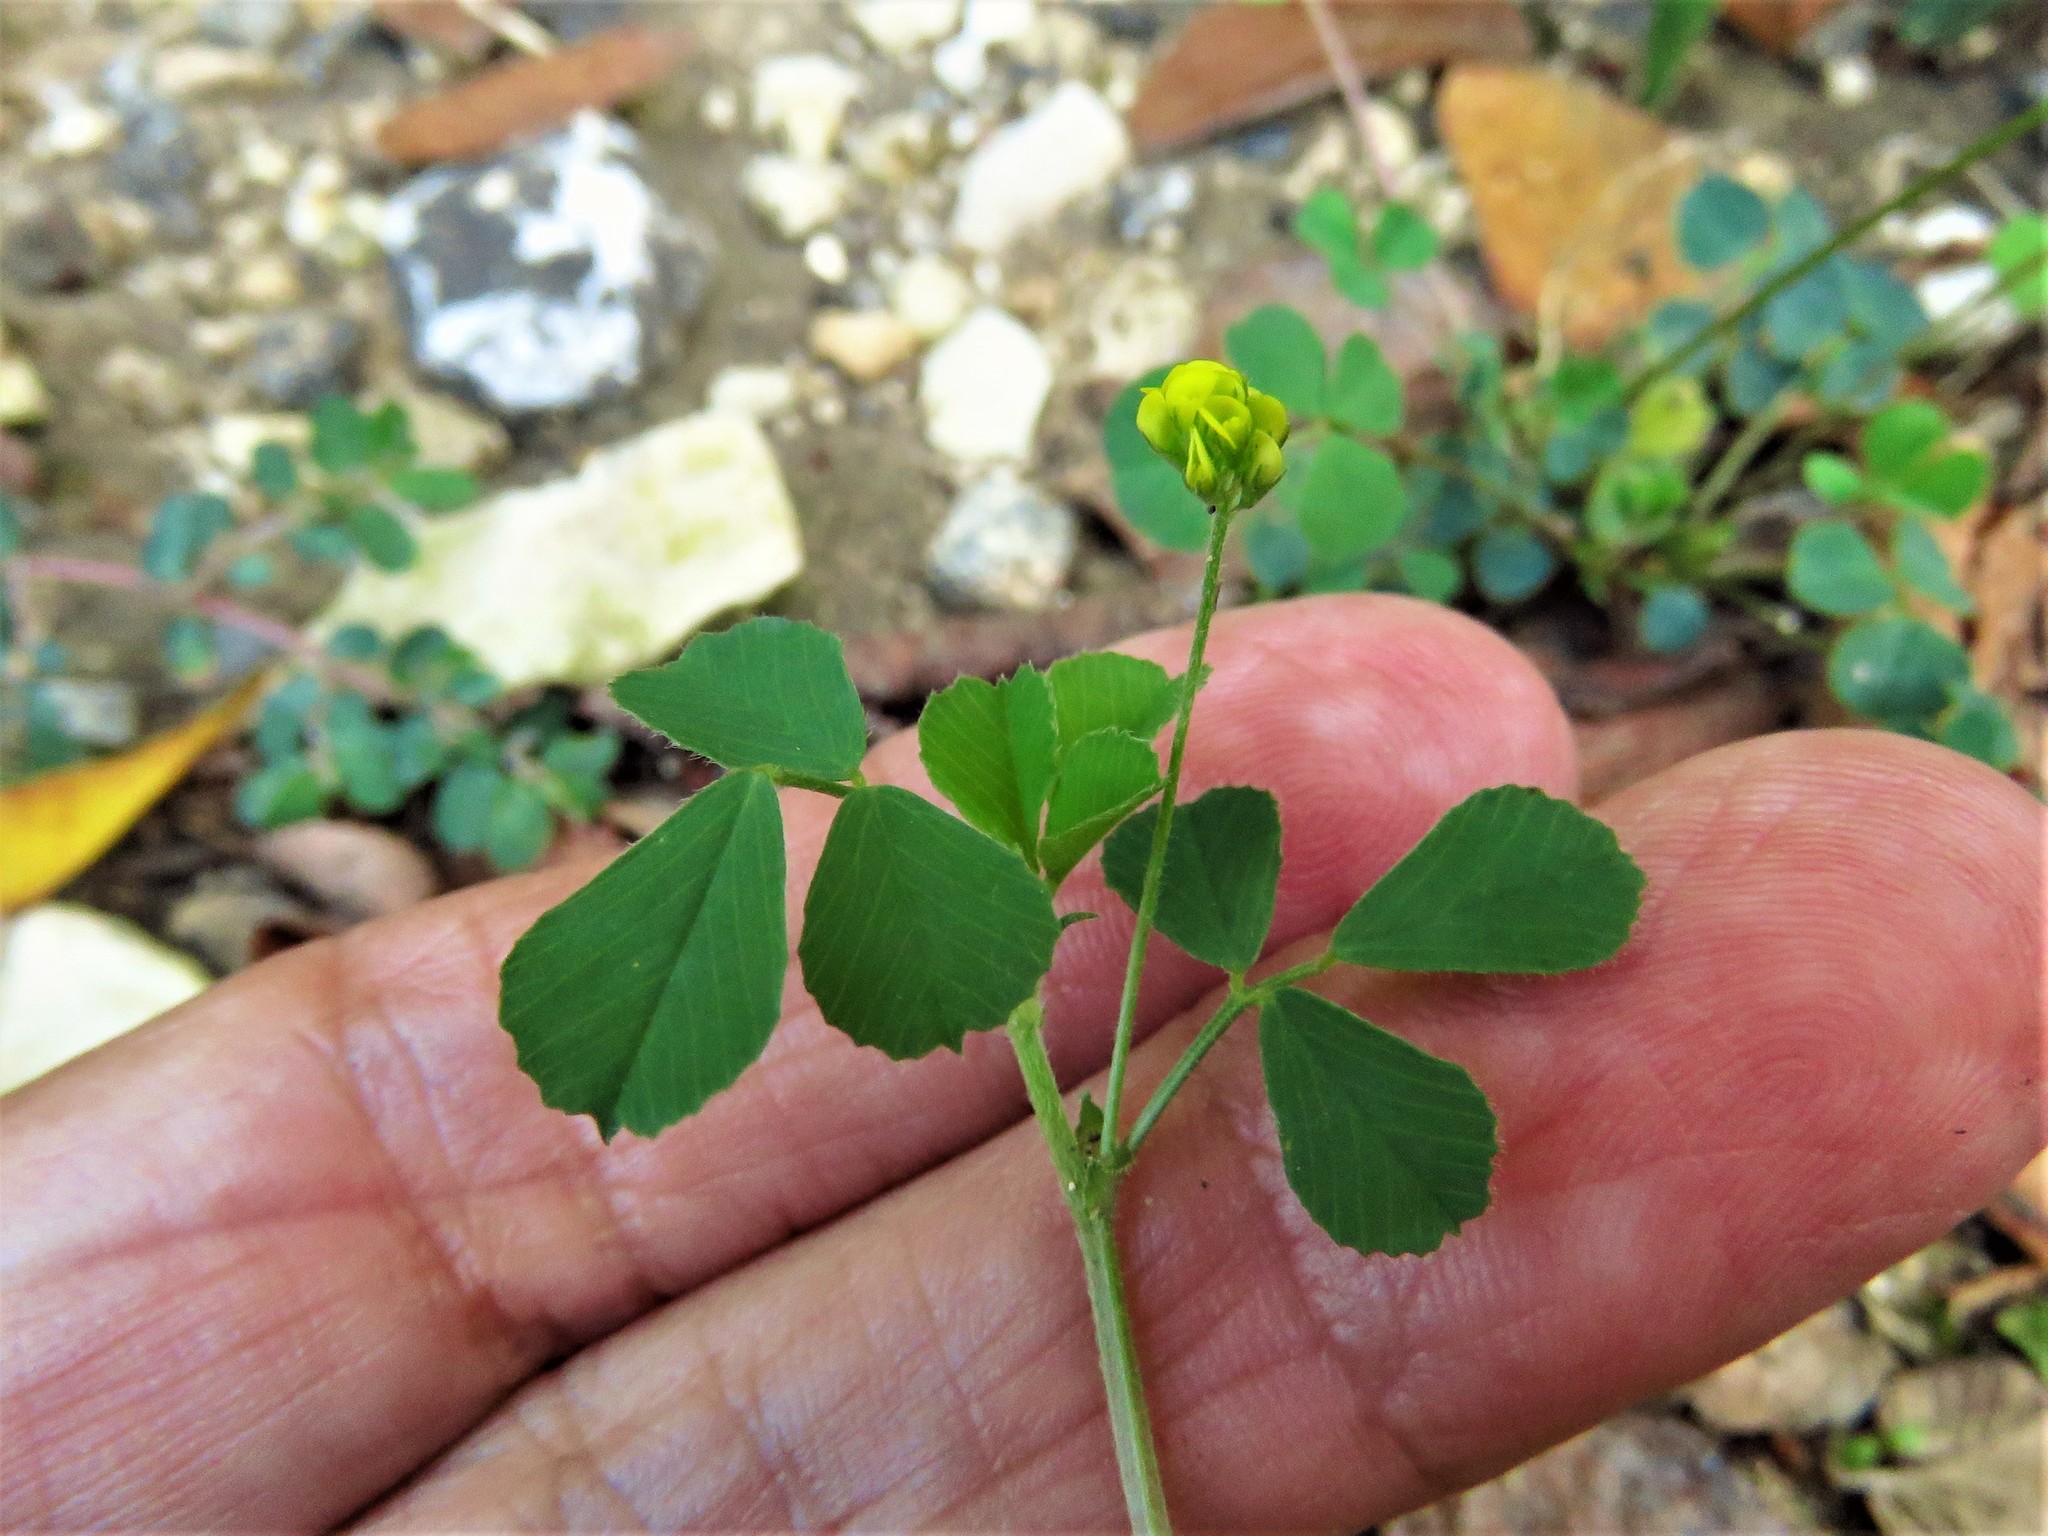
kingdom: Plantae
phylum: Tracheophyta
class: Magnoliopsida
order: Fabales
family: Fabaceae
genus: Medicago
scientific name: Medicago lupulina
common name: Black medick
